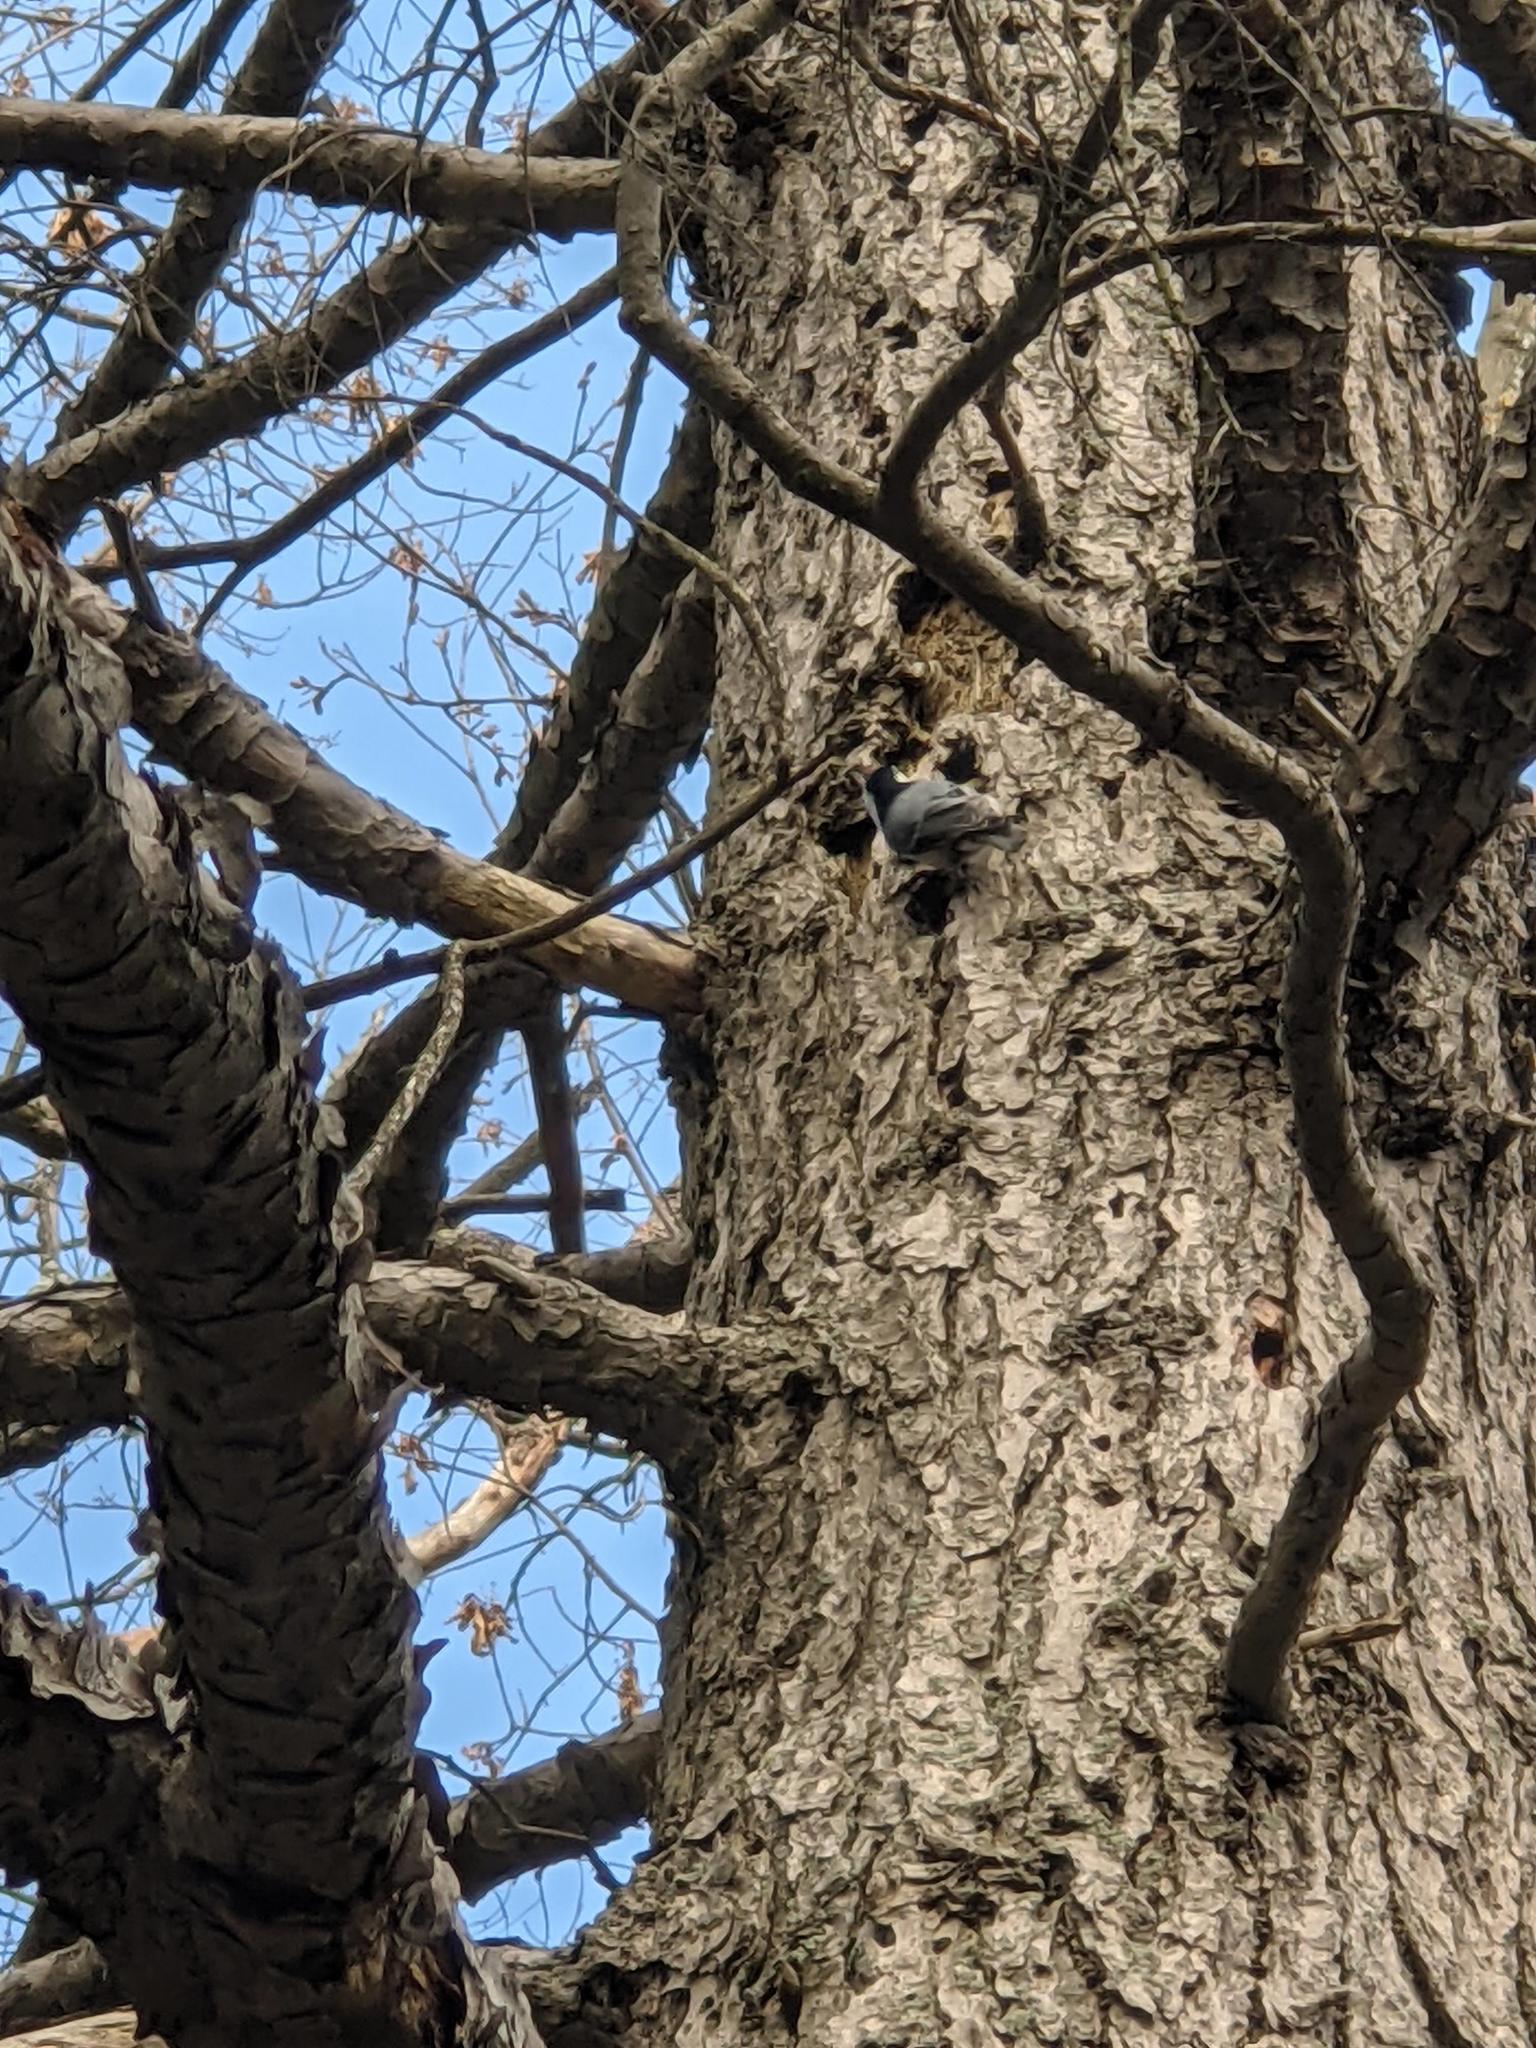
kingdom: Animalia
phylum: Chordata
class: Aves
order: Passeriformes
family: Sittidae
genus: Sitta
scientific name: Sitta carolinensis
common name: White-breasted nuthatch
